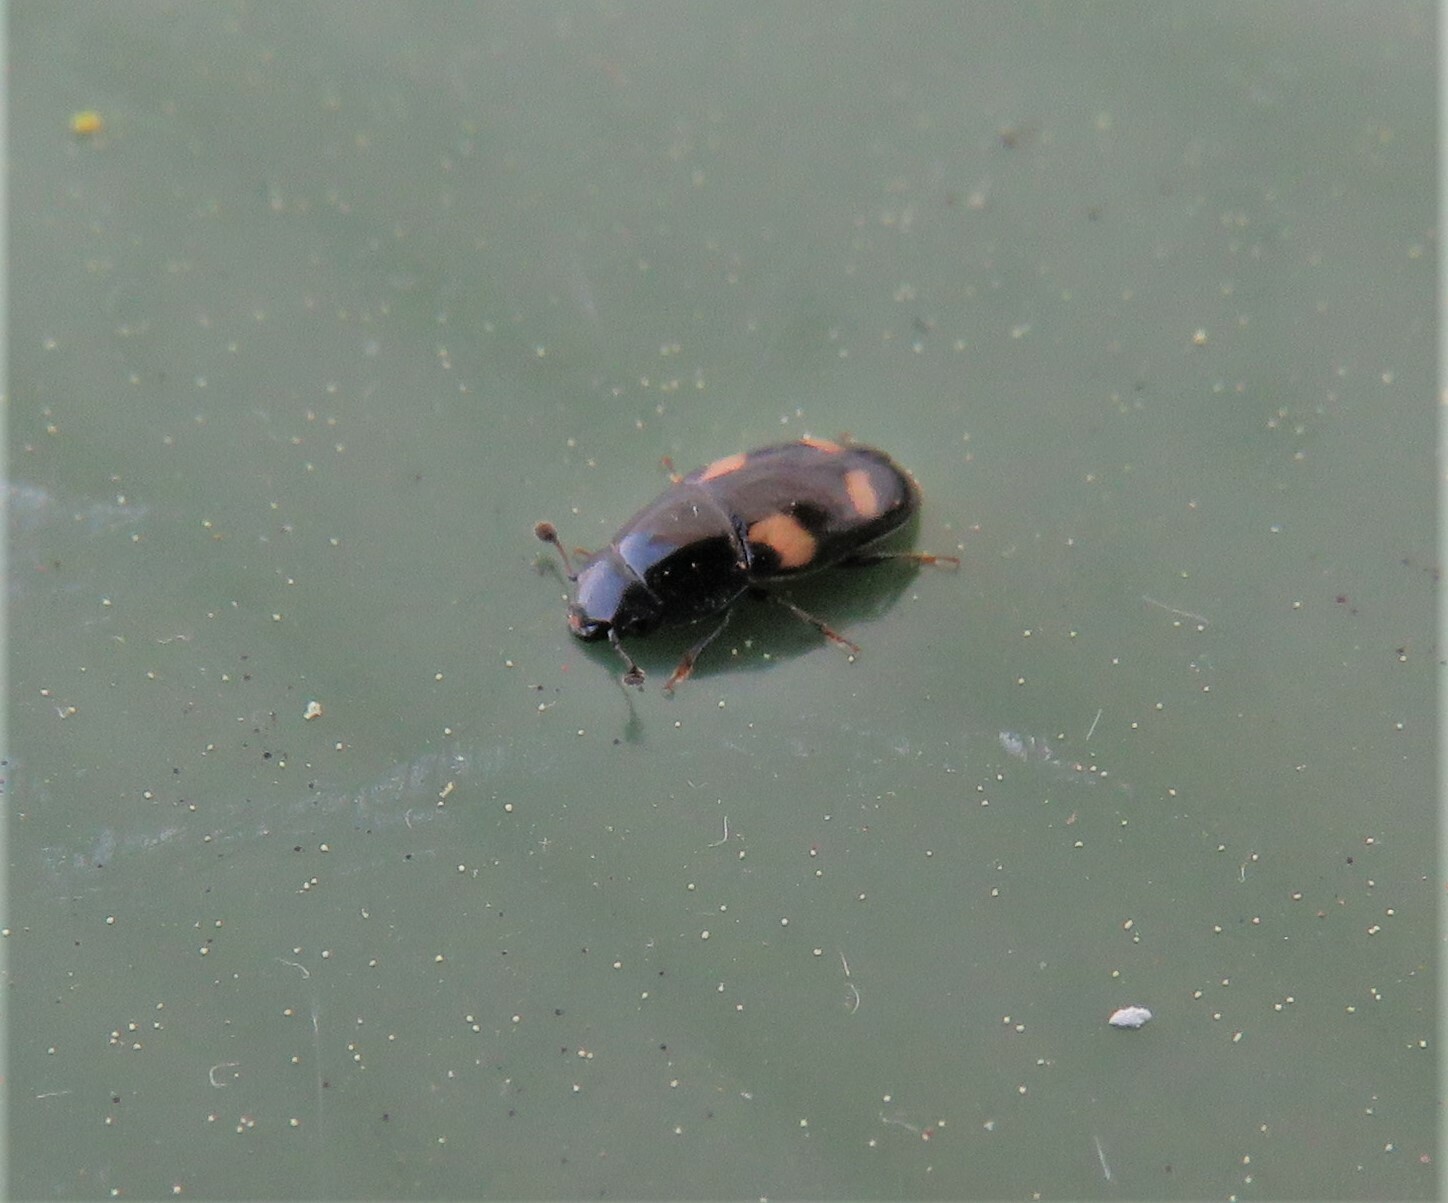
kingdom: Animalia
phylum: Arthropoda
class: Insecta
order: Coleoptera
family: Nitidulidae
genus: Glischrochilus
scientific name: Glischrochilus quadrisignatus
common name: Picnic beetle
